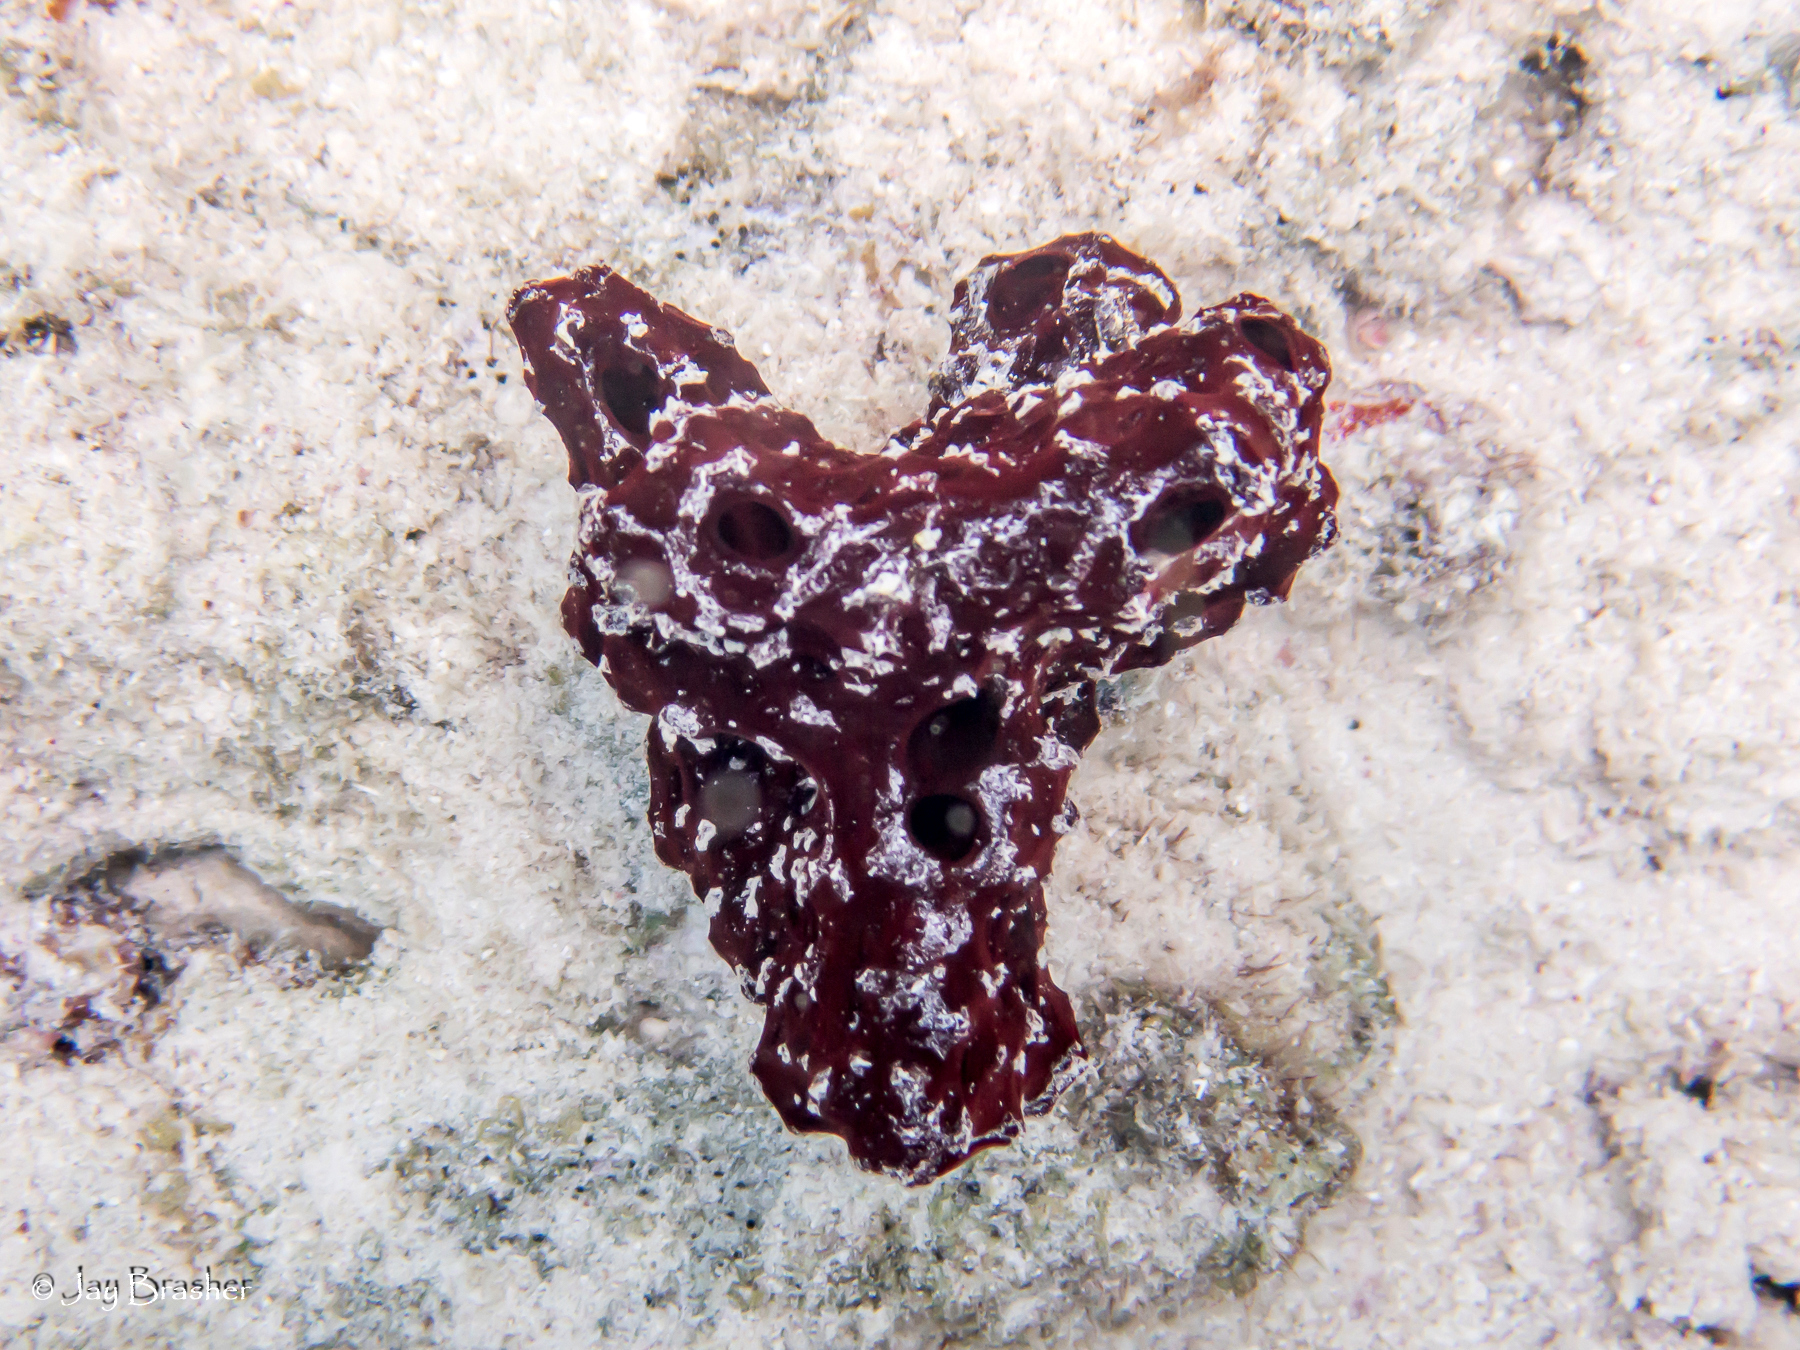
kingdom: Animalia
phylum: Porifera
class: Demospongiae
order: Poecilosclerida
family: Microcionidae
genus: Pandaros
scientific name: Pandaros acanthifolium
